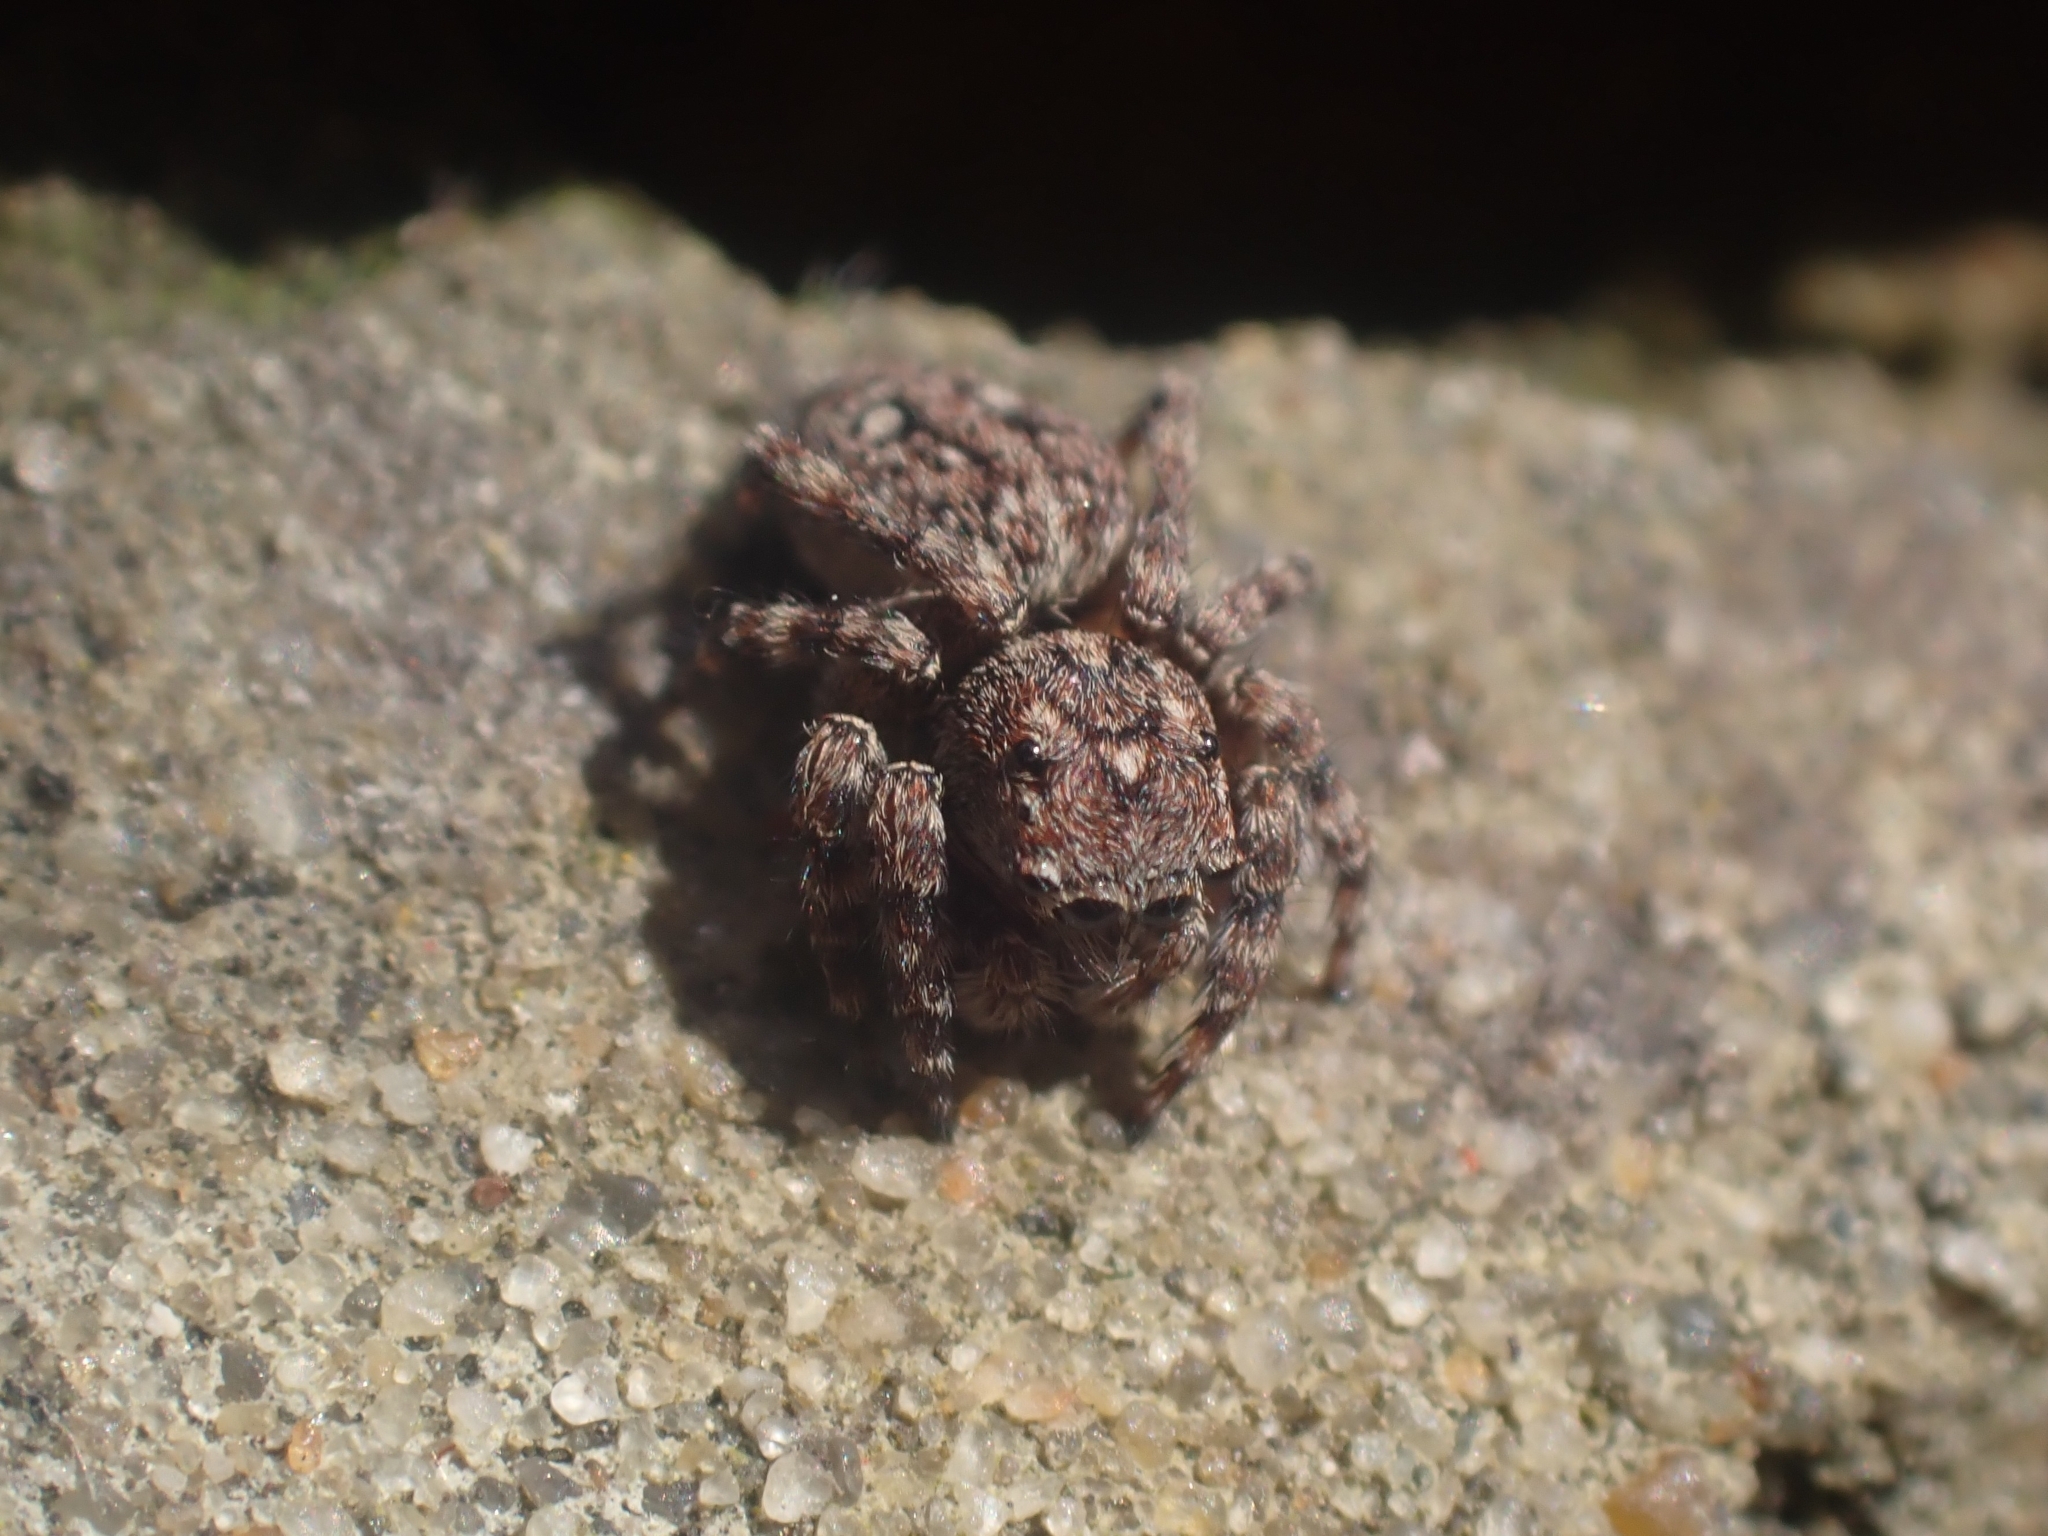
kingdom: Animalia
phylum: Arthropoda
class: Arachnida
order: Araneae
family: Salticidae
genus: Attulus
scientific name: Attulus pubescens
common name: Jumping spider
